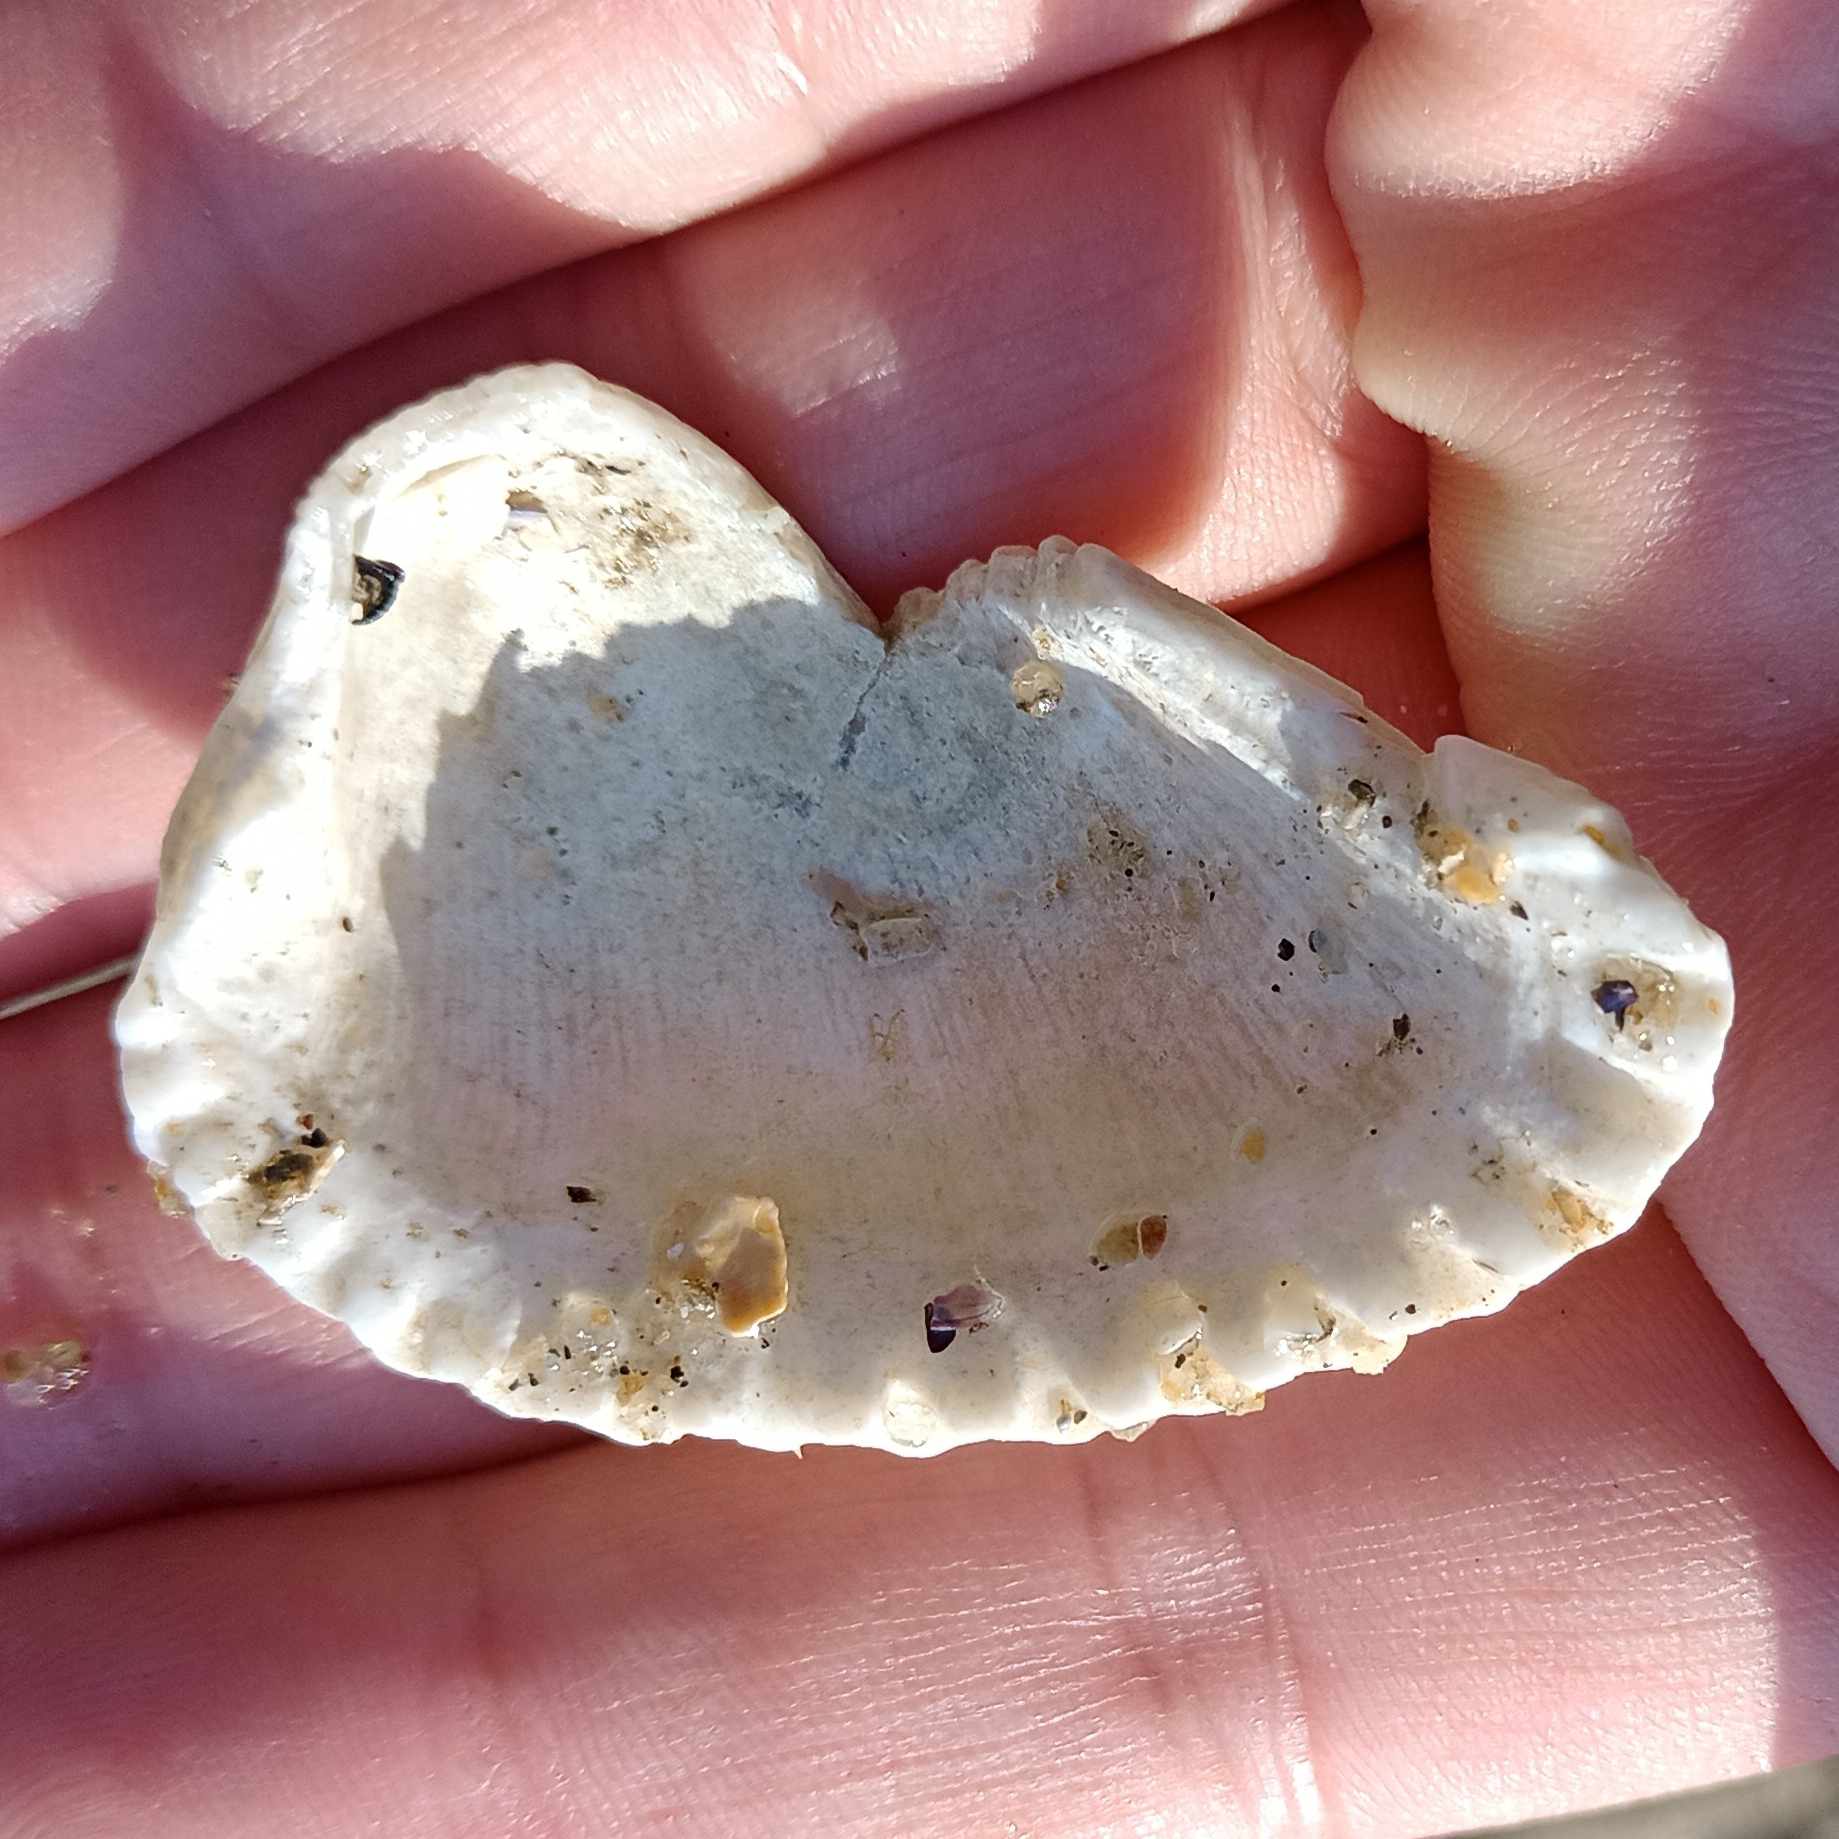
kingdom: Animalia
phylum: Mollusca
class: Bivalvia
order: Arcida
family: Arcidae
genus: Anadara
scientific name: Anadara notabilis
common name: Eared ark
